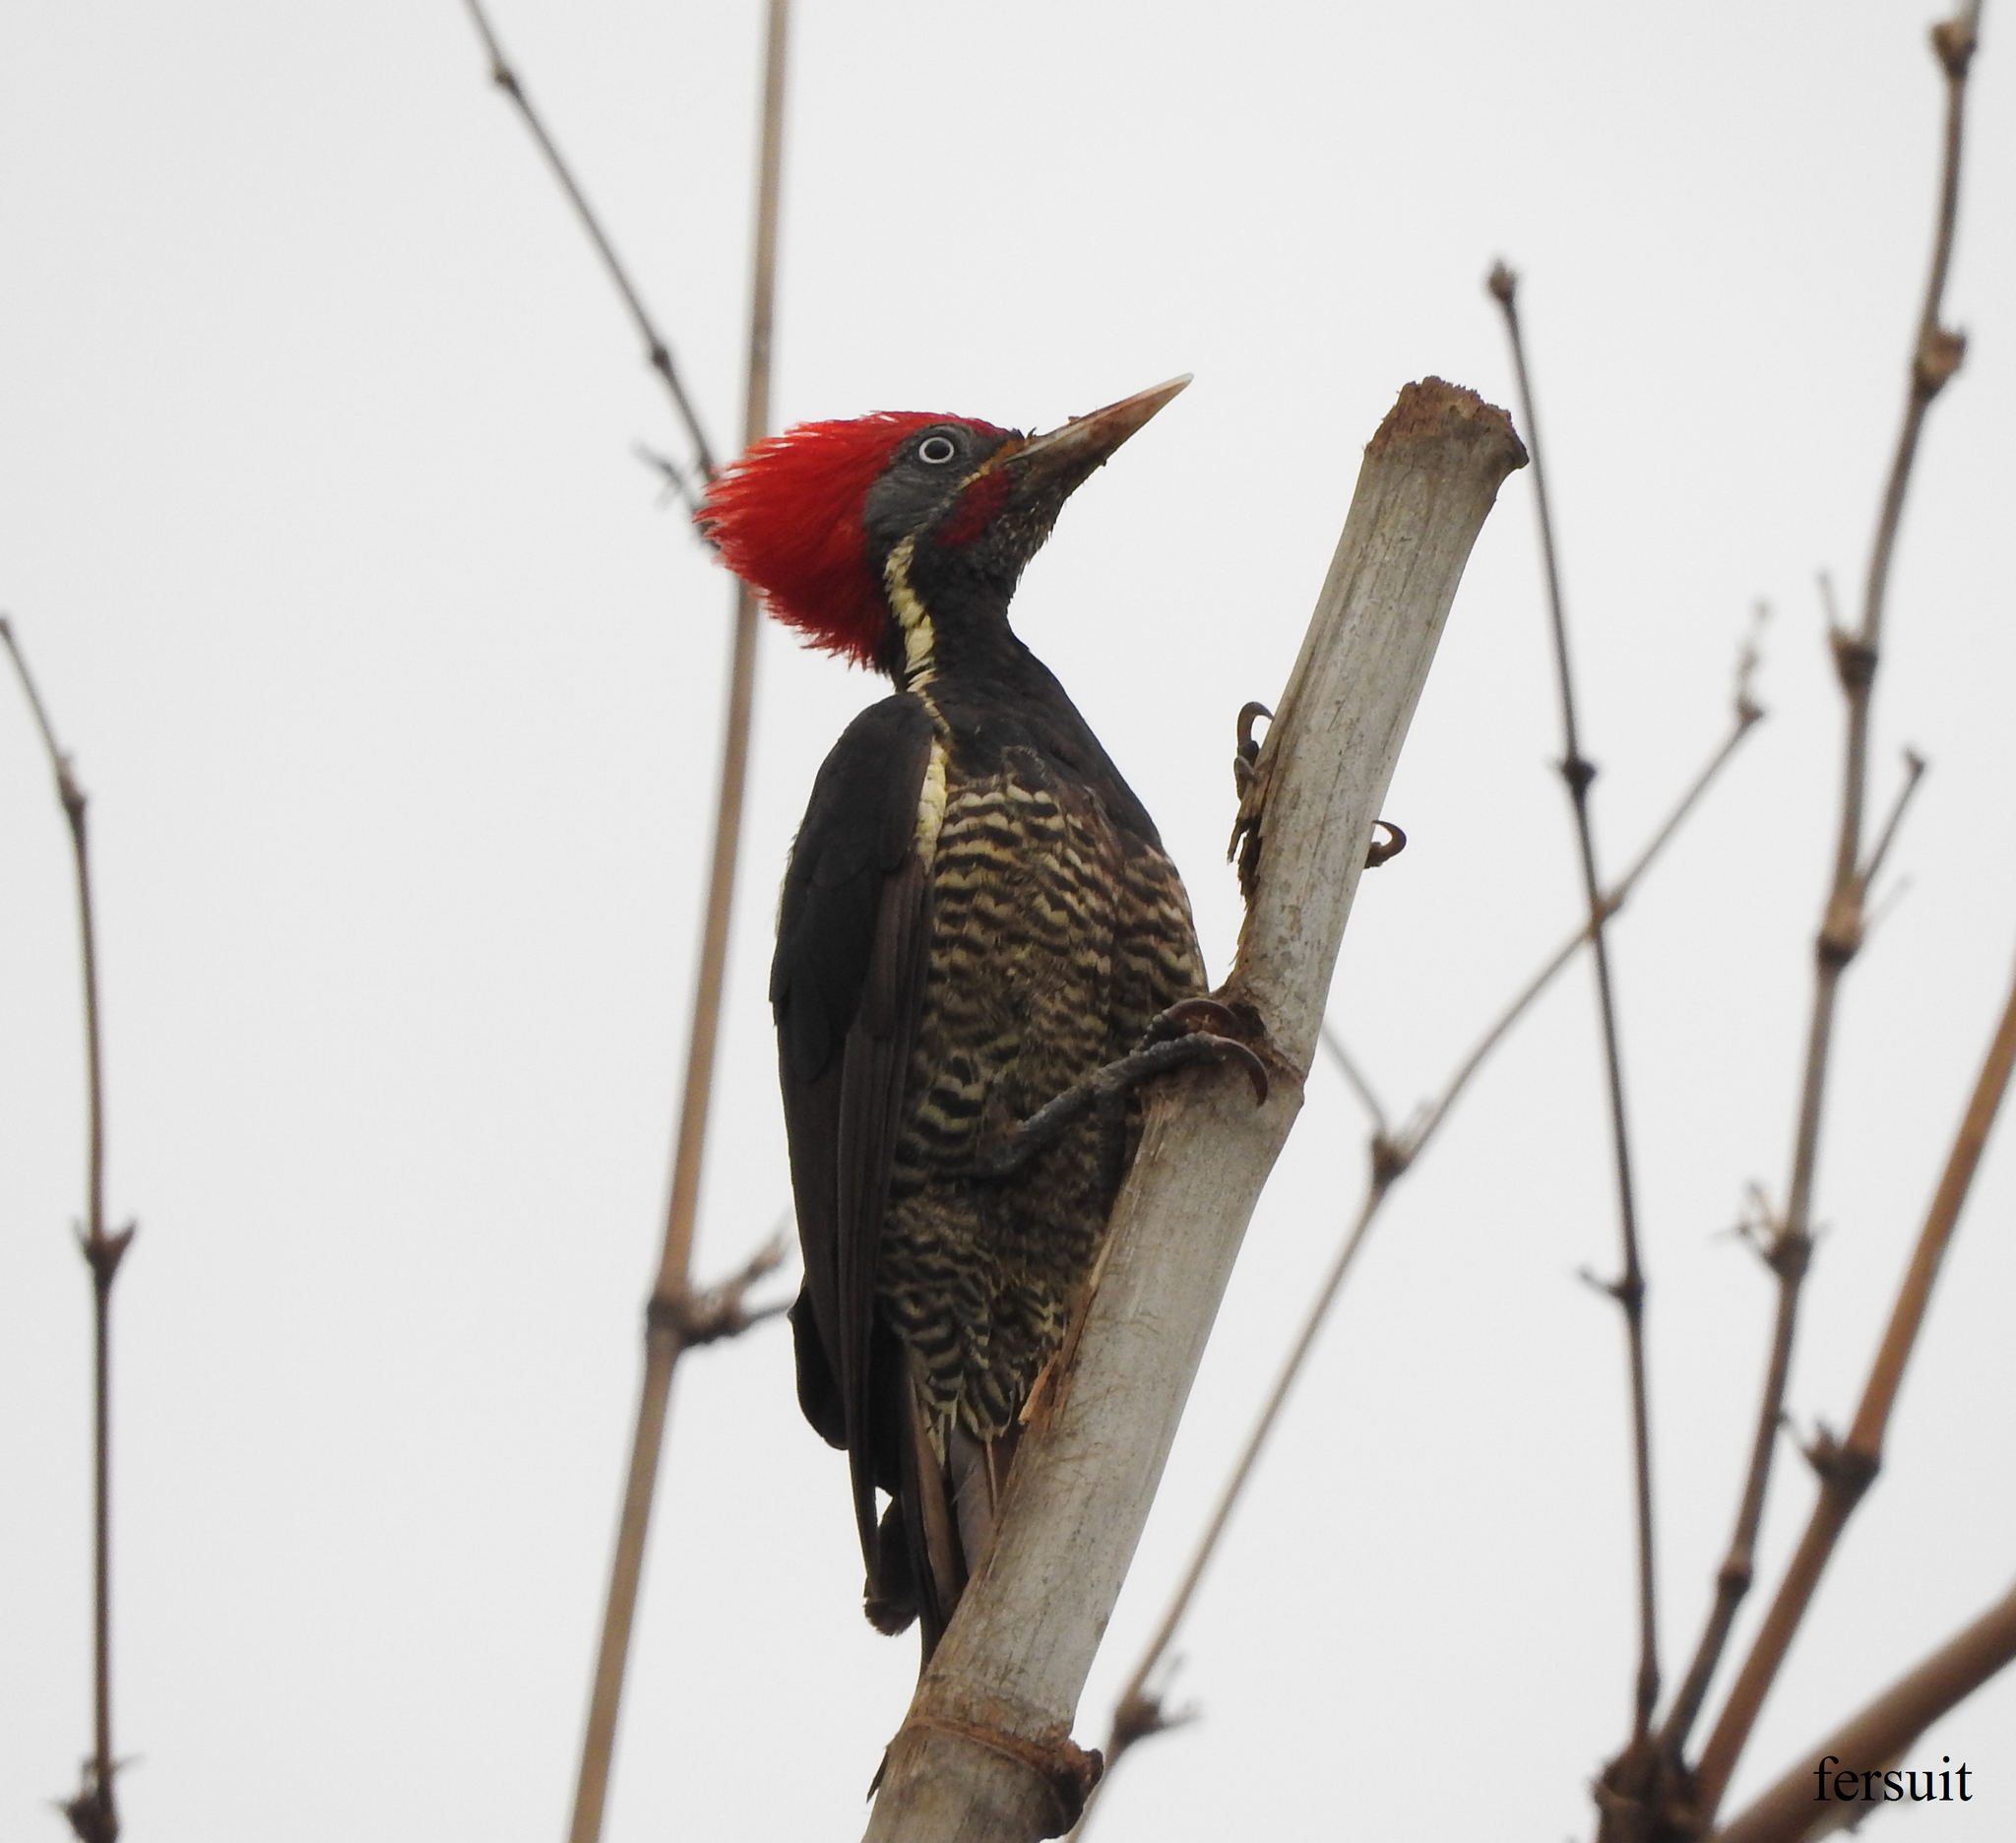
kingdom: Animalia
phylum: Chordata
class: Aves
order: Piciformes
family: Picidae
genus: Dryocopus
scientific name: Dryocopus lineatus
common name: Lineated woodpecker
